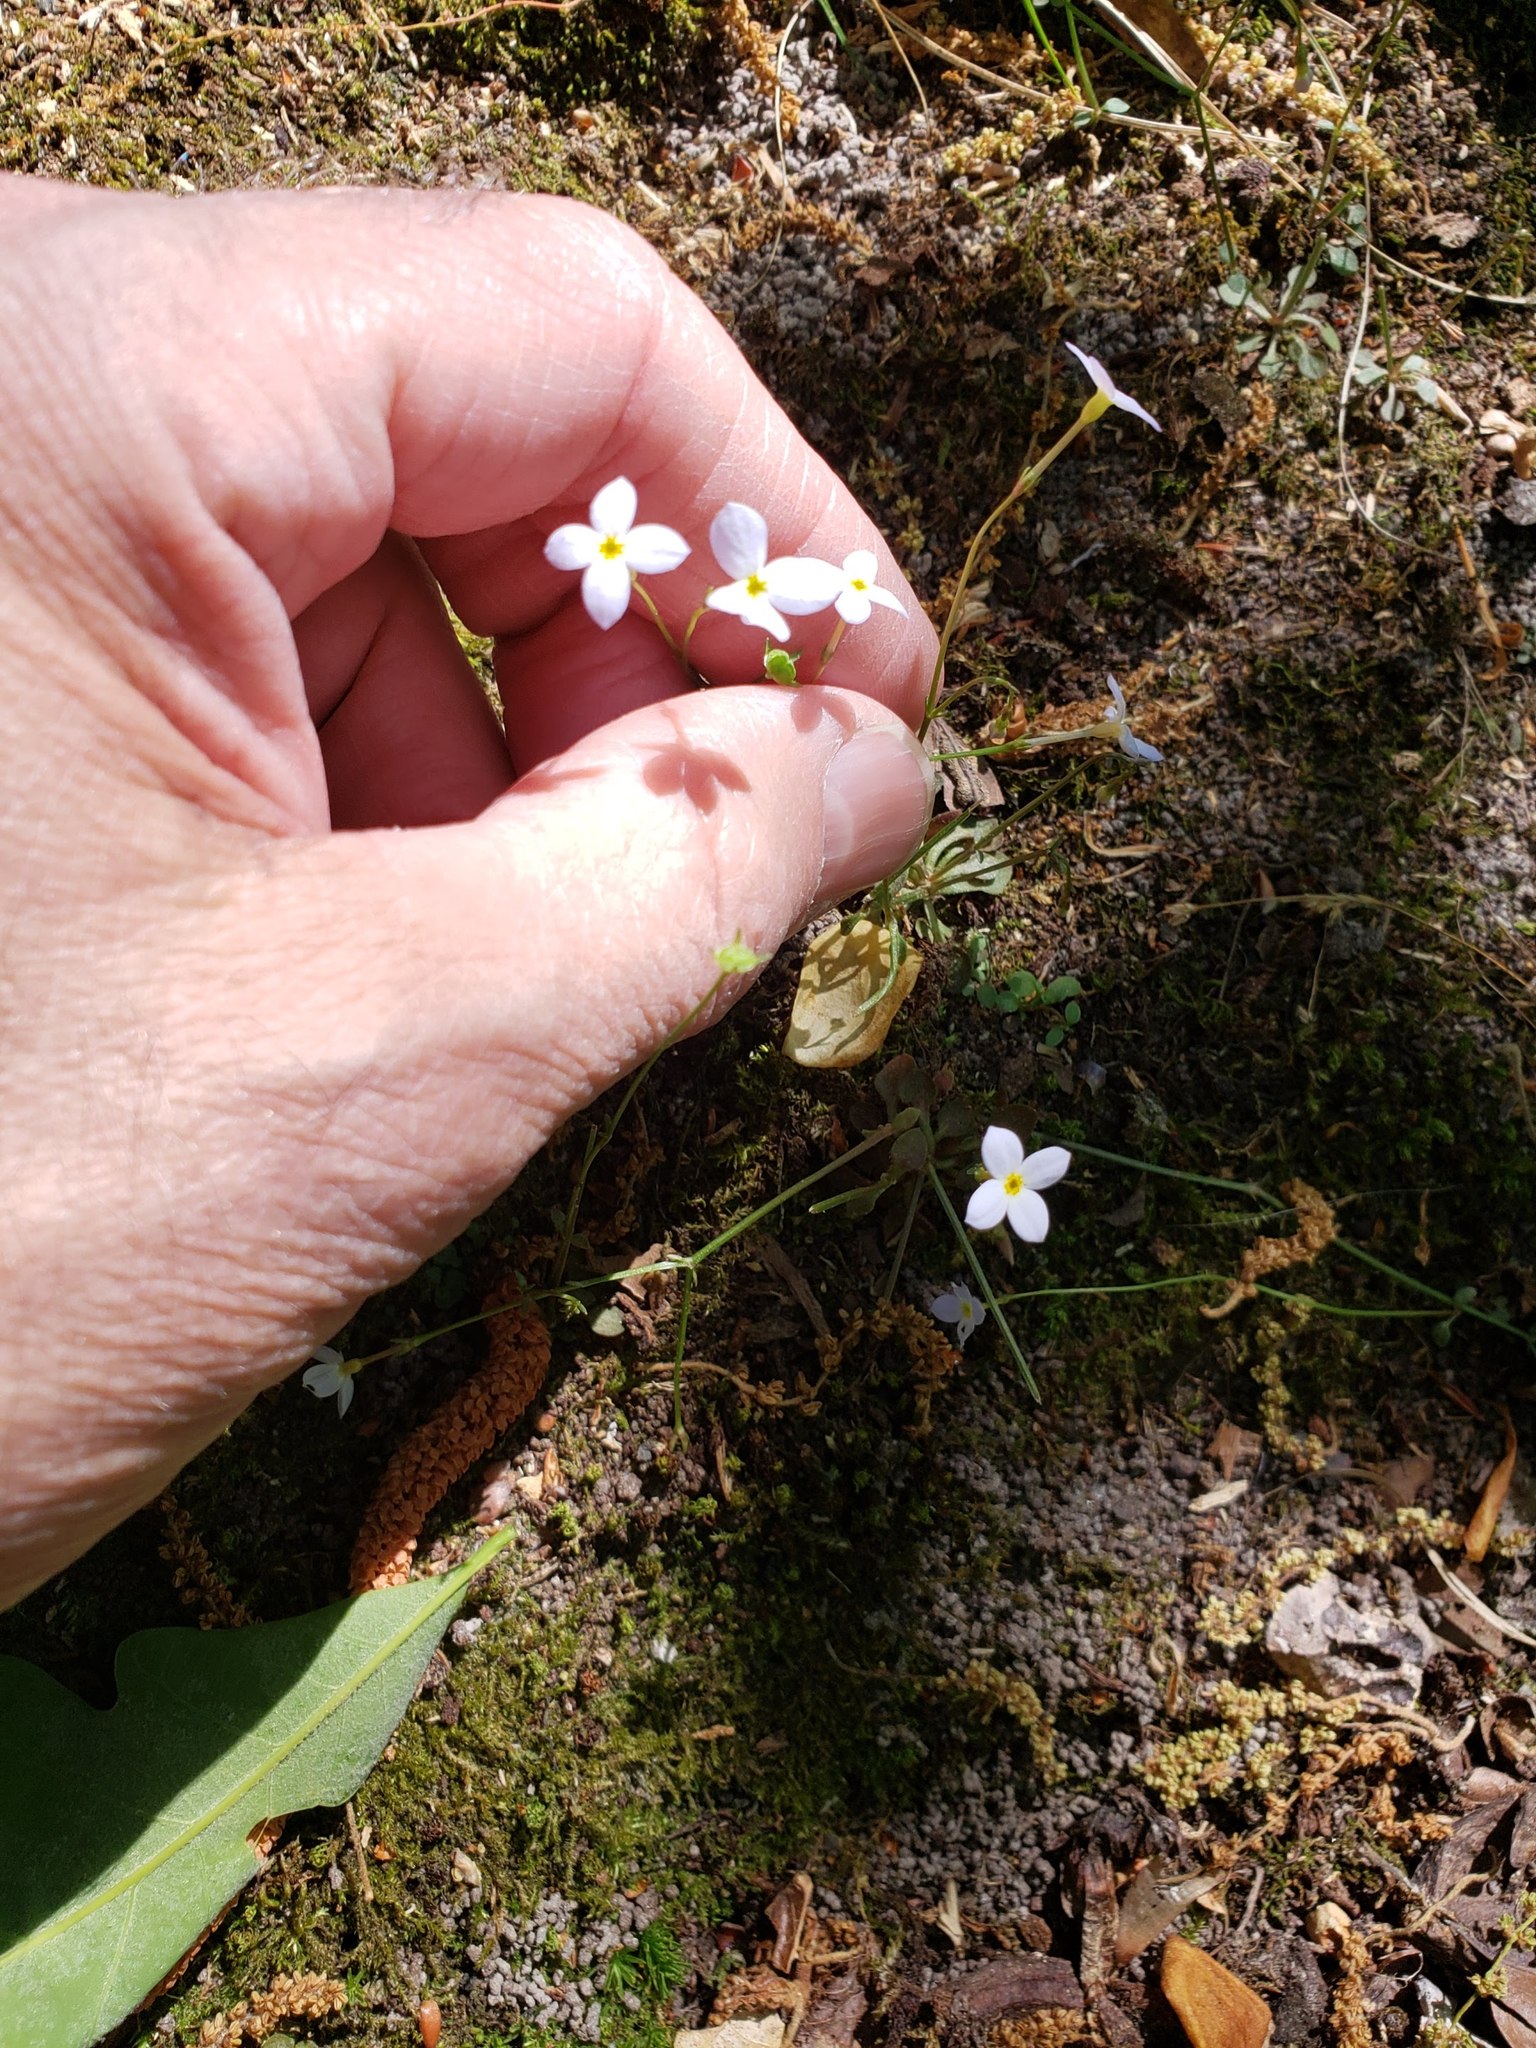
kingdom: Plantae
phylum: Tracheophyta
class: Magnoliopsida
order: Gentianales
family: Rubiaceae
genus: Houstonia
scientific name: Houstonia caerulea
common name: Bluets
